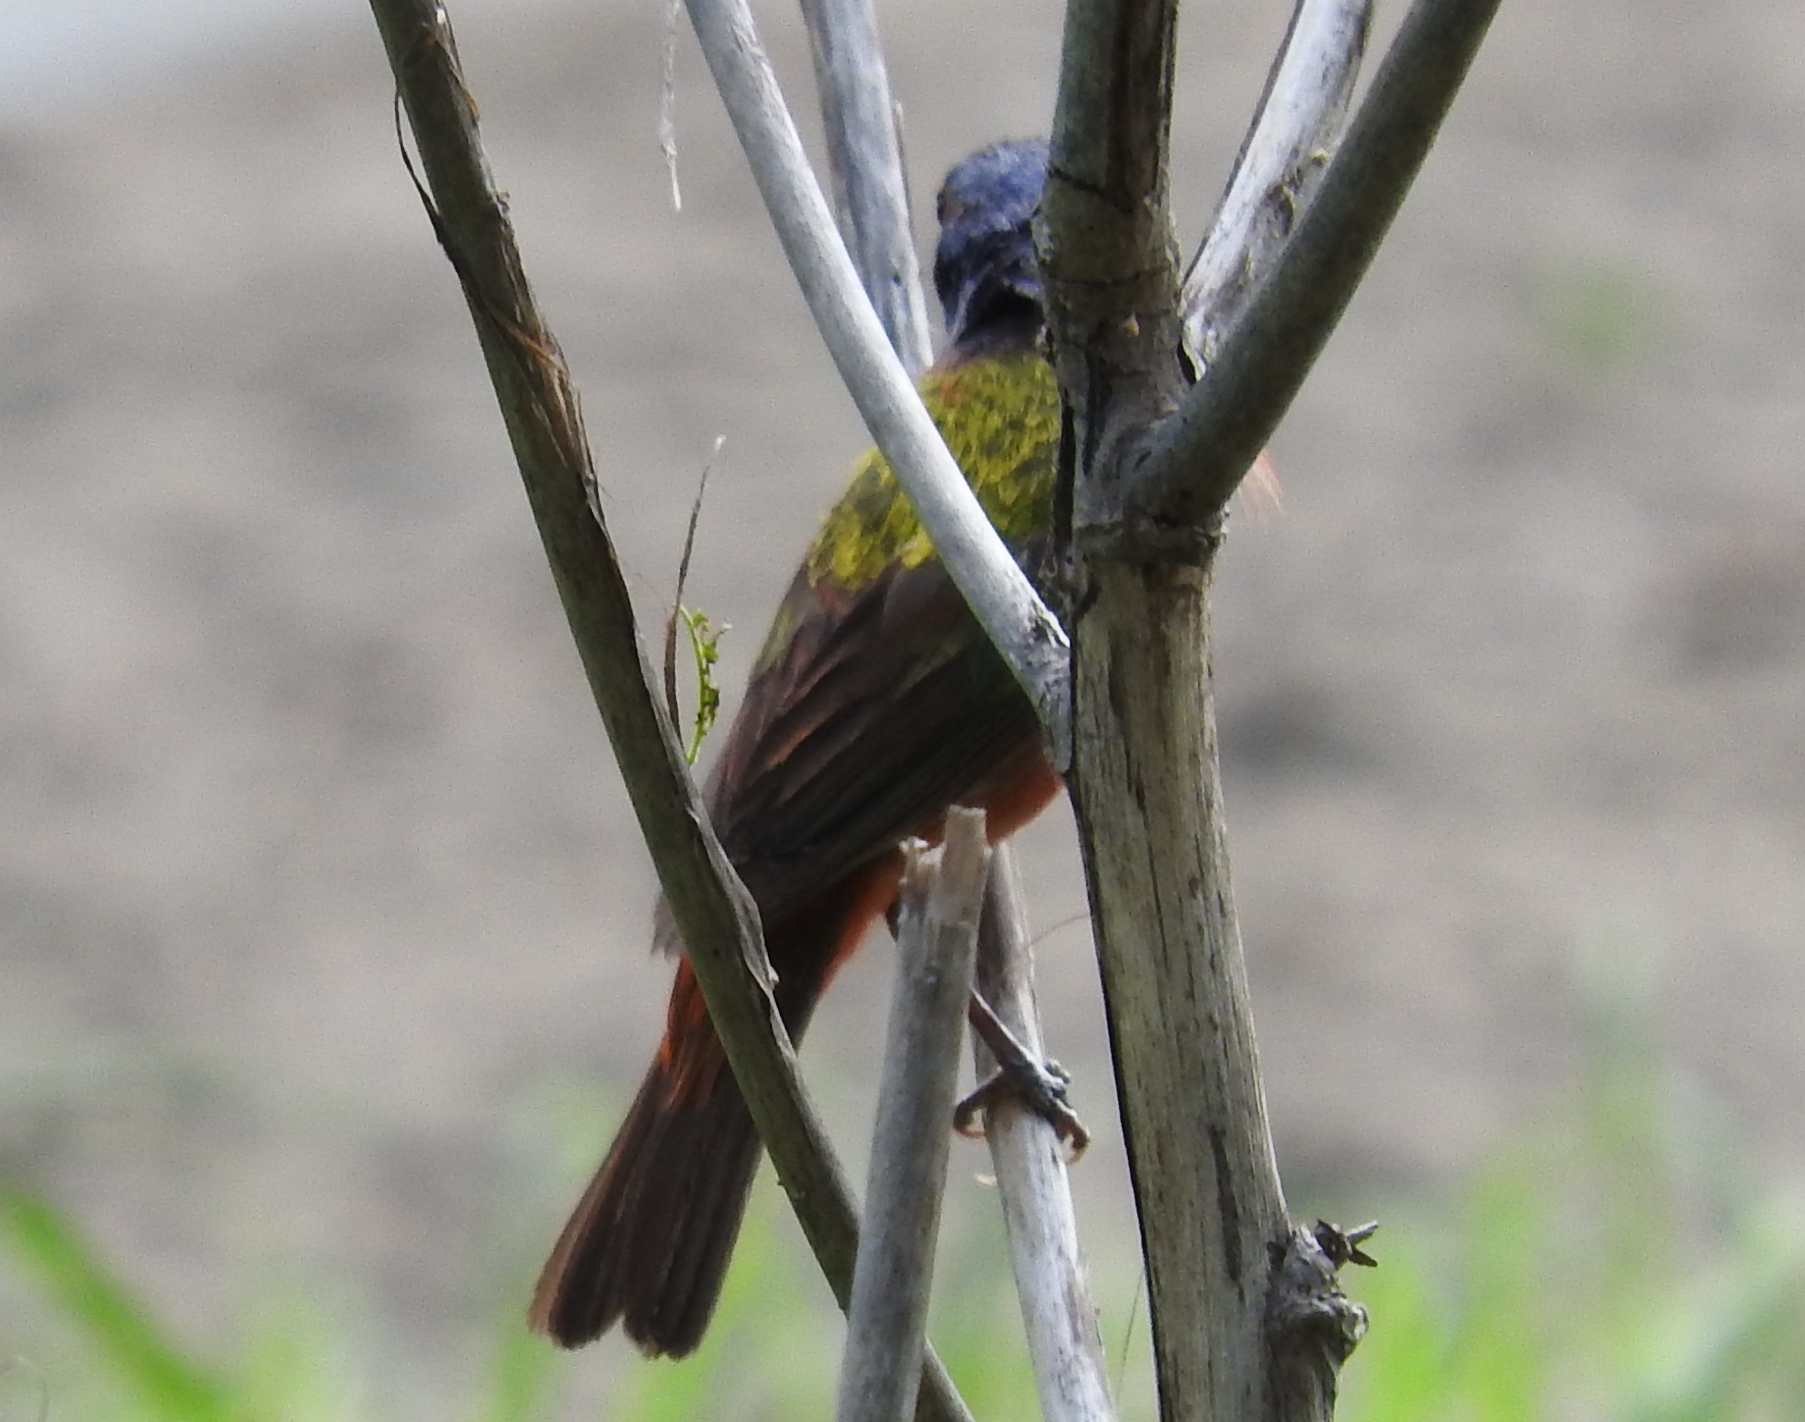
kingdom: Animalia
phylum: Chordata
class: Aves
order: Passeriformes
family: Cardinalidae
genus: Passerina
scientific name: Passerina ciris
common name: Painted bunting
